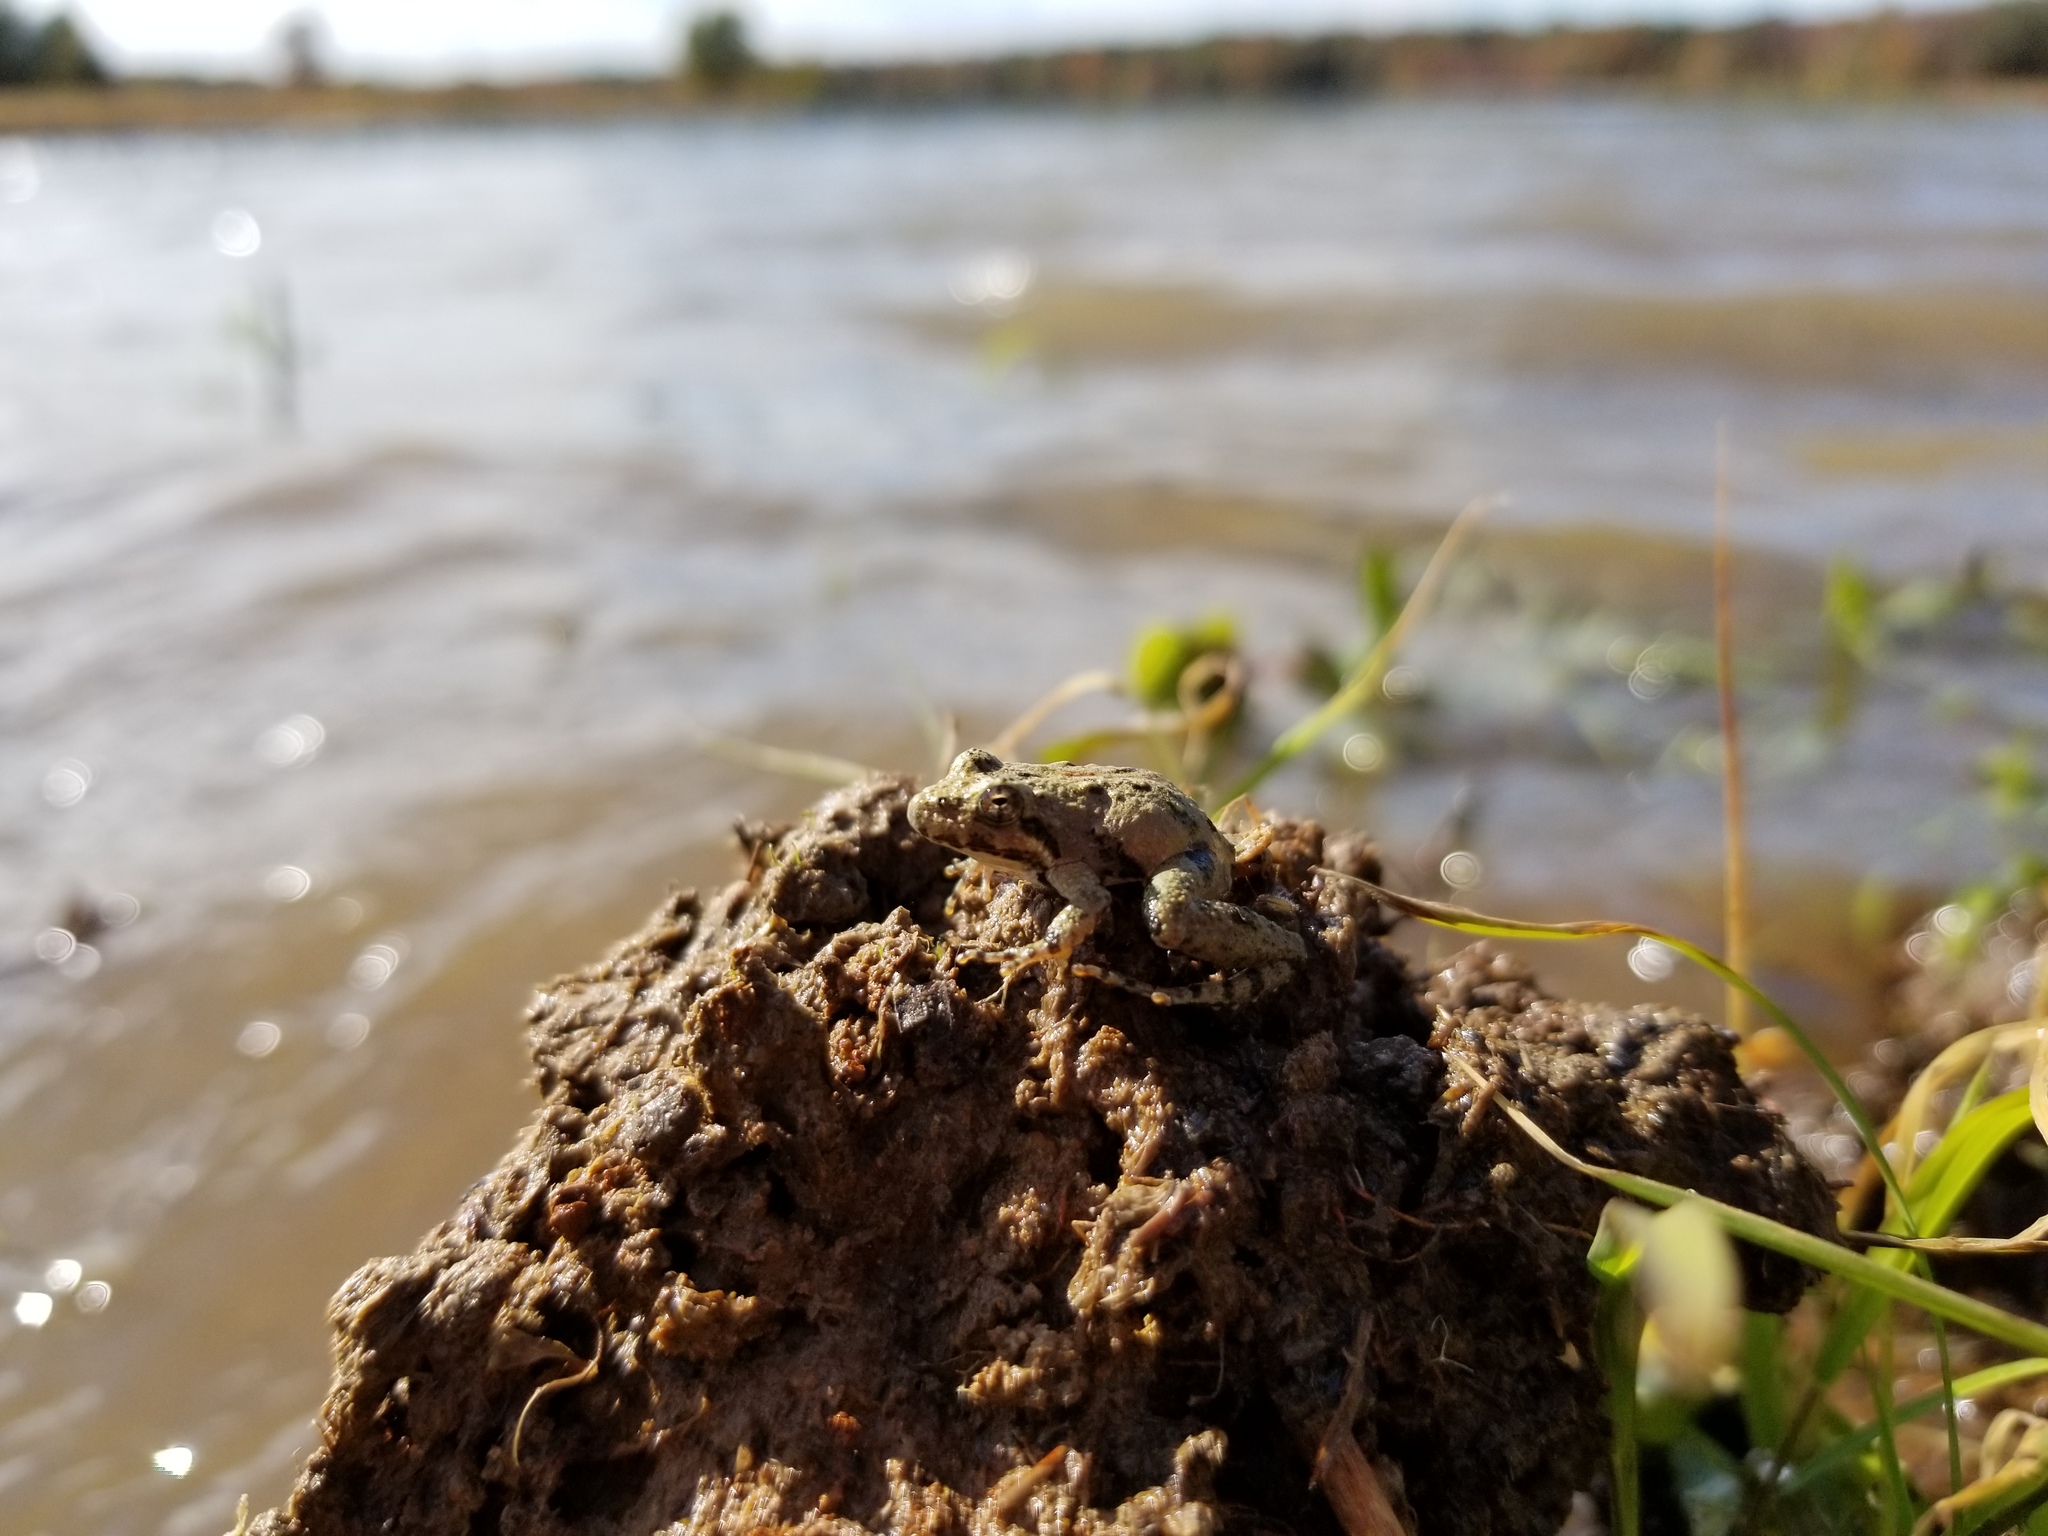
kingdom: Animalia
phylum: Chordata
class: Amphibia
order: Anura
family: Hylidae
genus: Acris
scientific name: Acris crepitans
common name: Northern cricket frog
